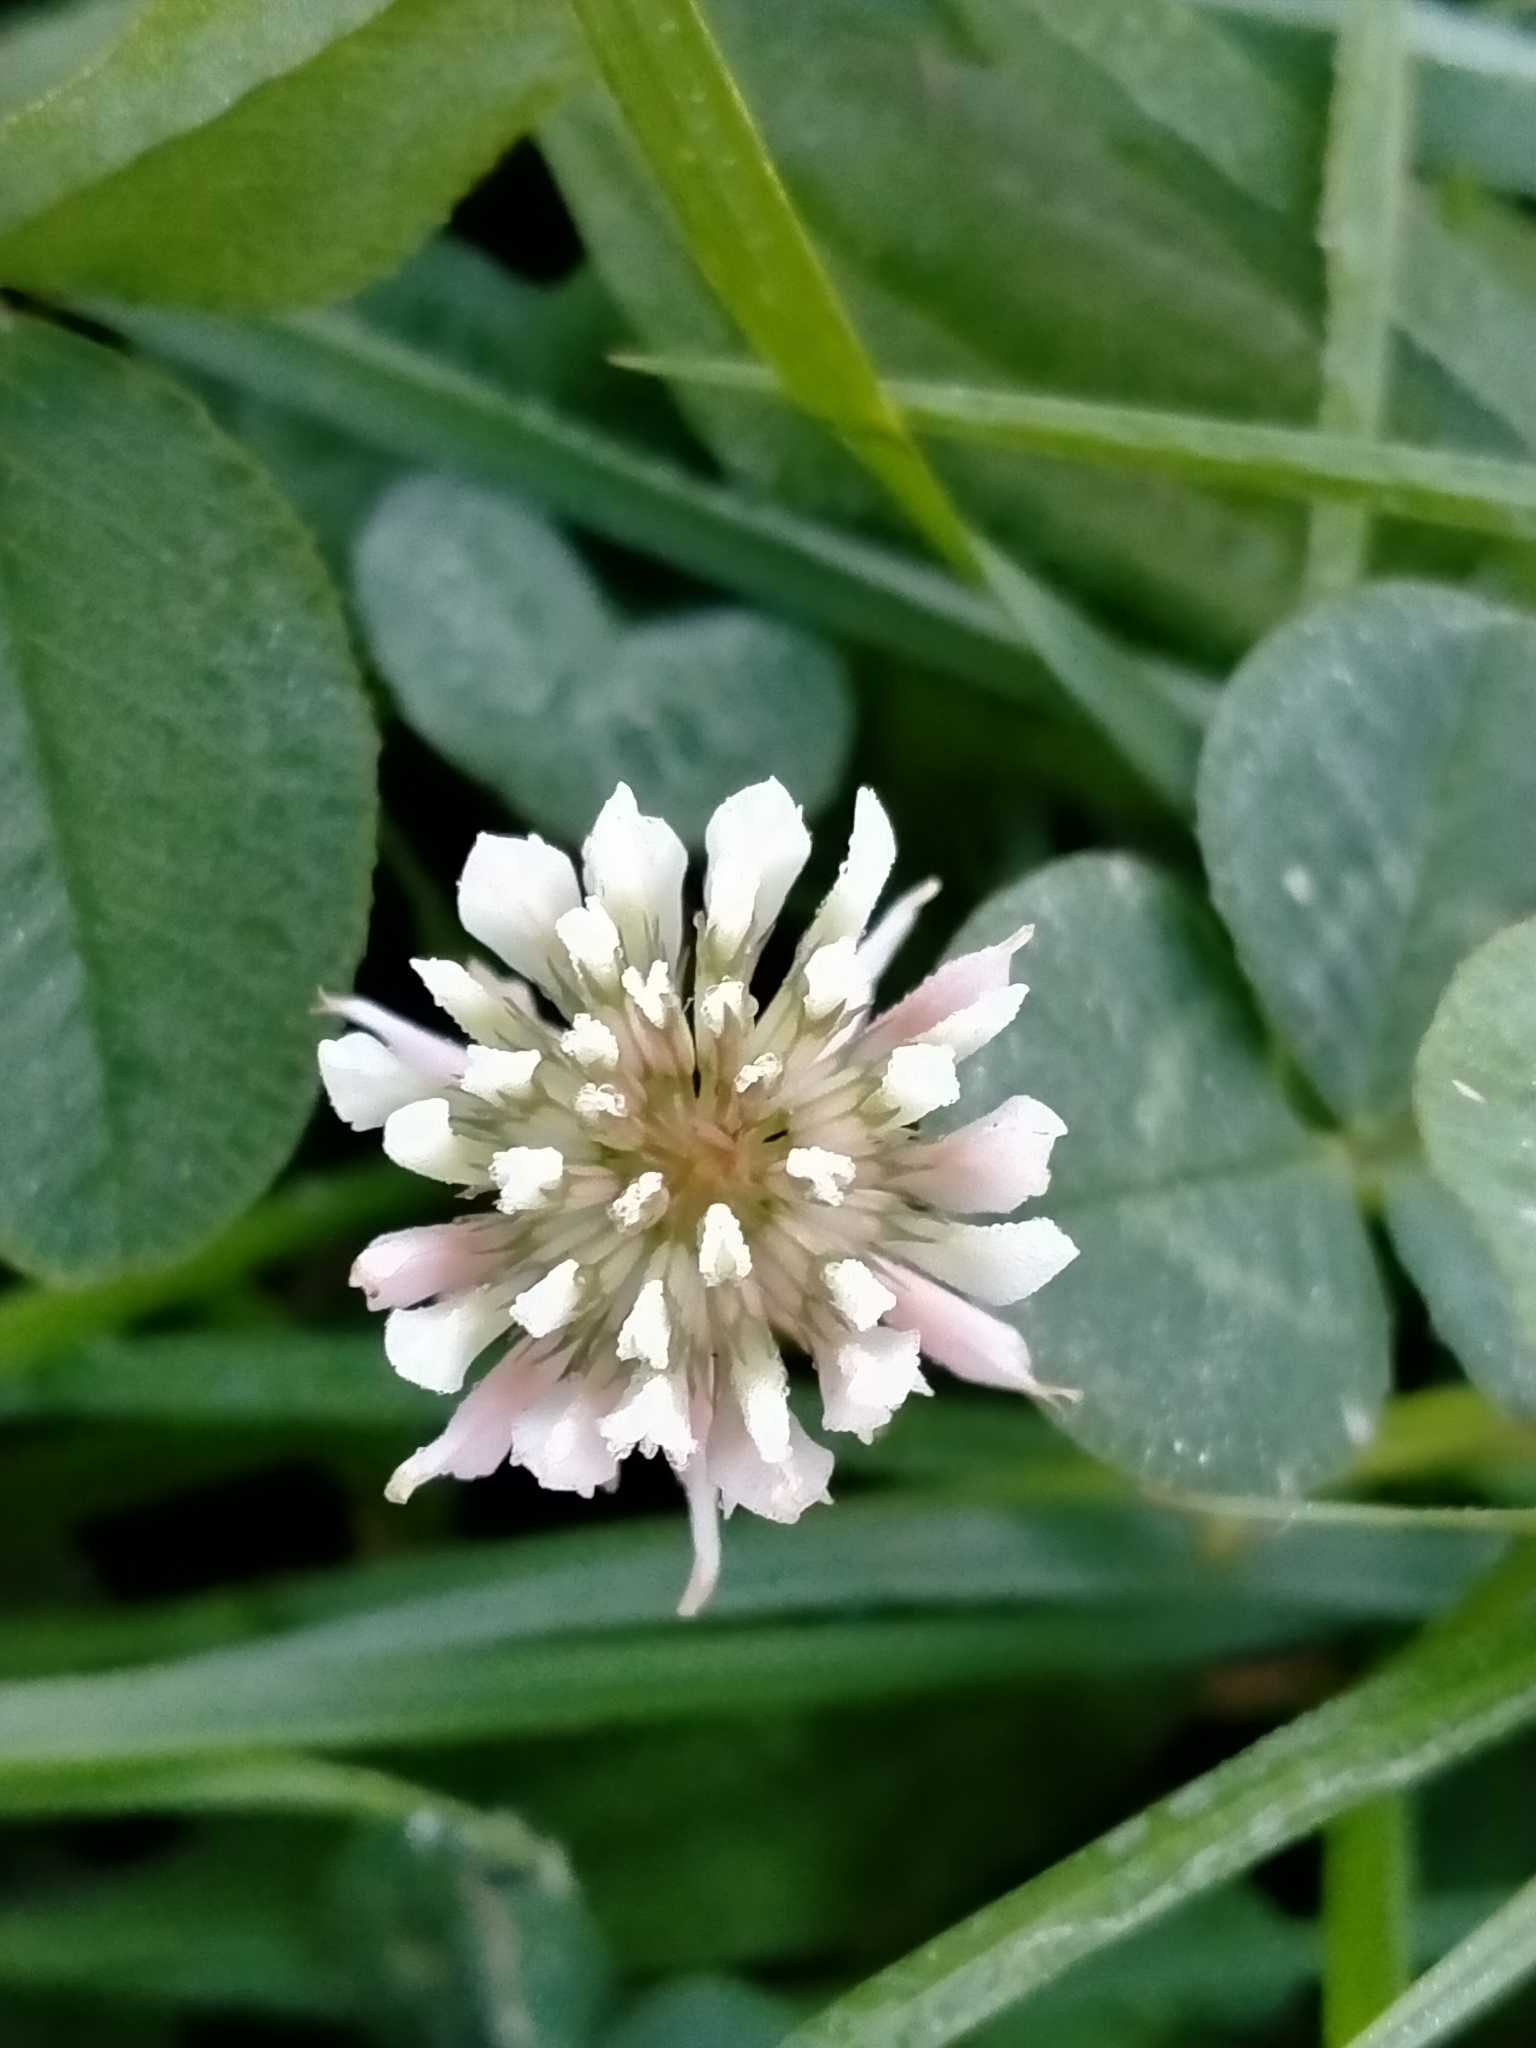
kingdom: Plantae
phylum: Tracheophyta
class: Magnoliopsida
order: Fabales
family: Fabaceae
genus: Trifolium
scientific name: Trifolium repens
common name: White clover
